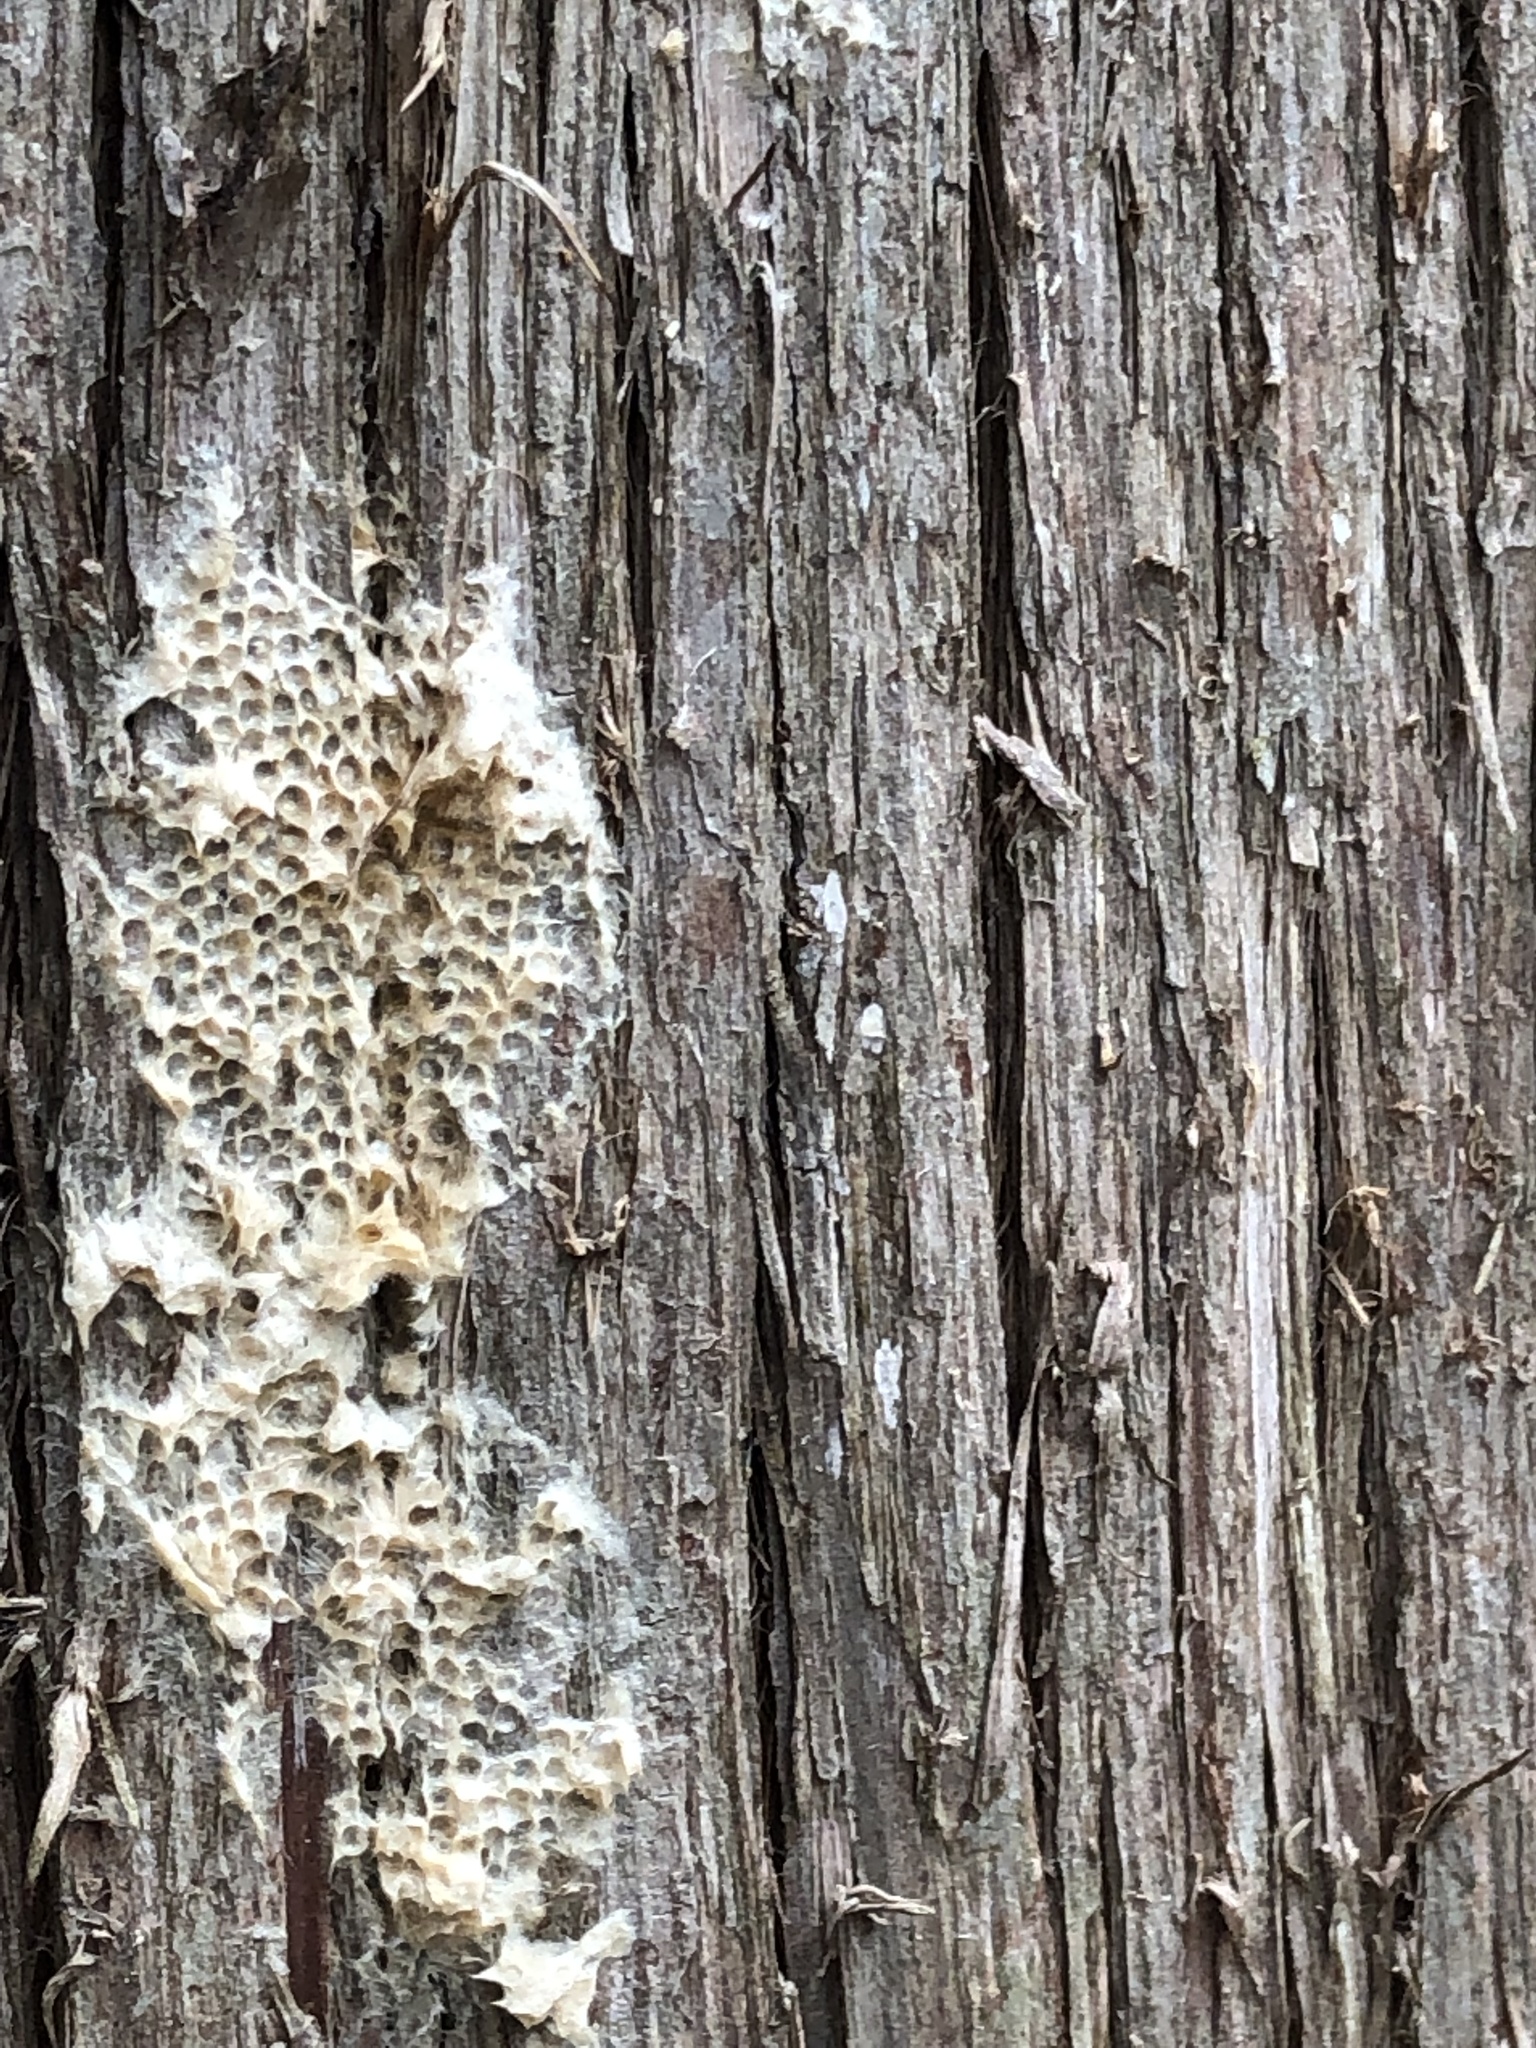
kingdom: Animalia
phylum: Arthropoda
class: Insecta
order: Lepidoptera
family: Erebidae
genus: Lymantria
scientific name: Lymantria dispar
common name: Gypsy moth
